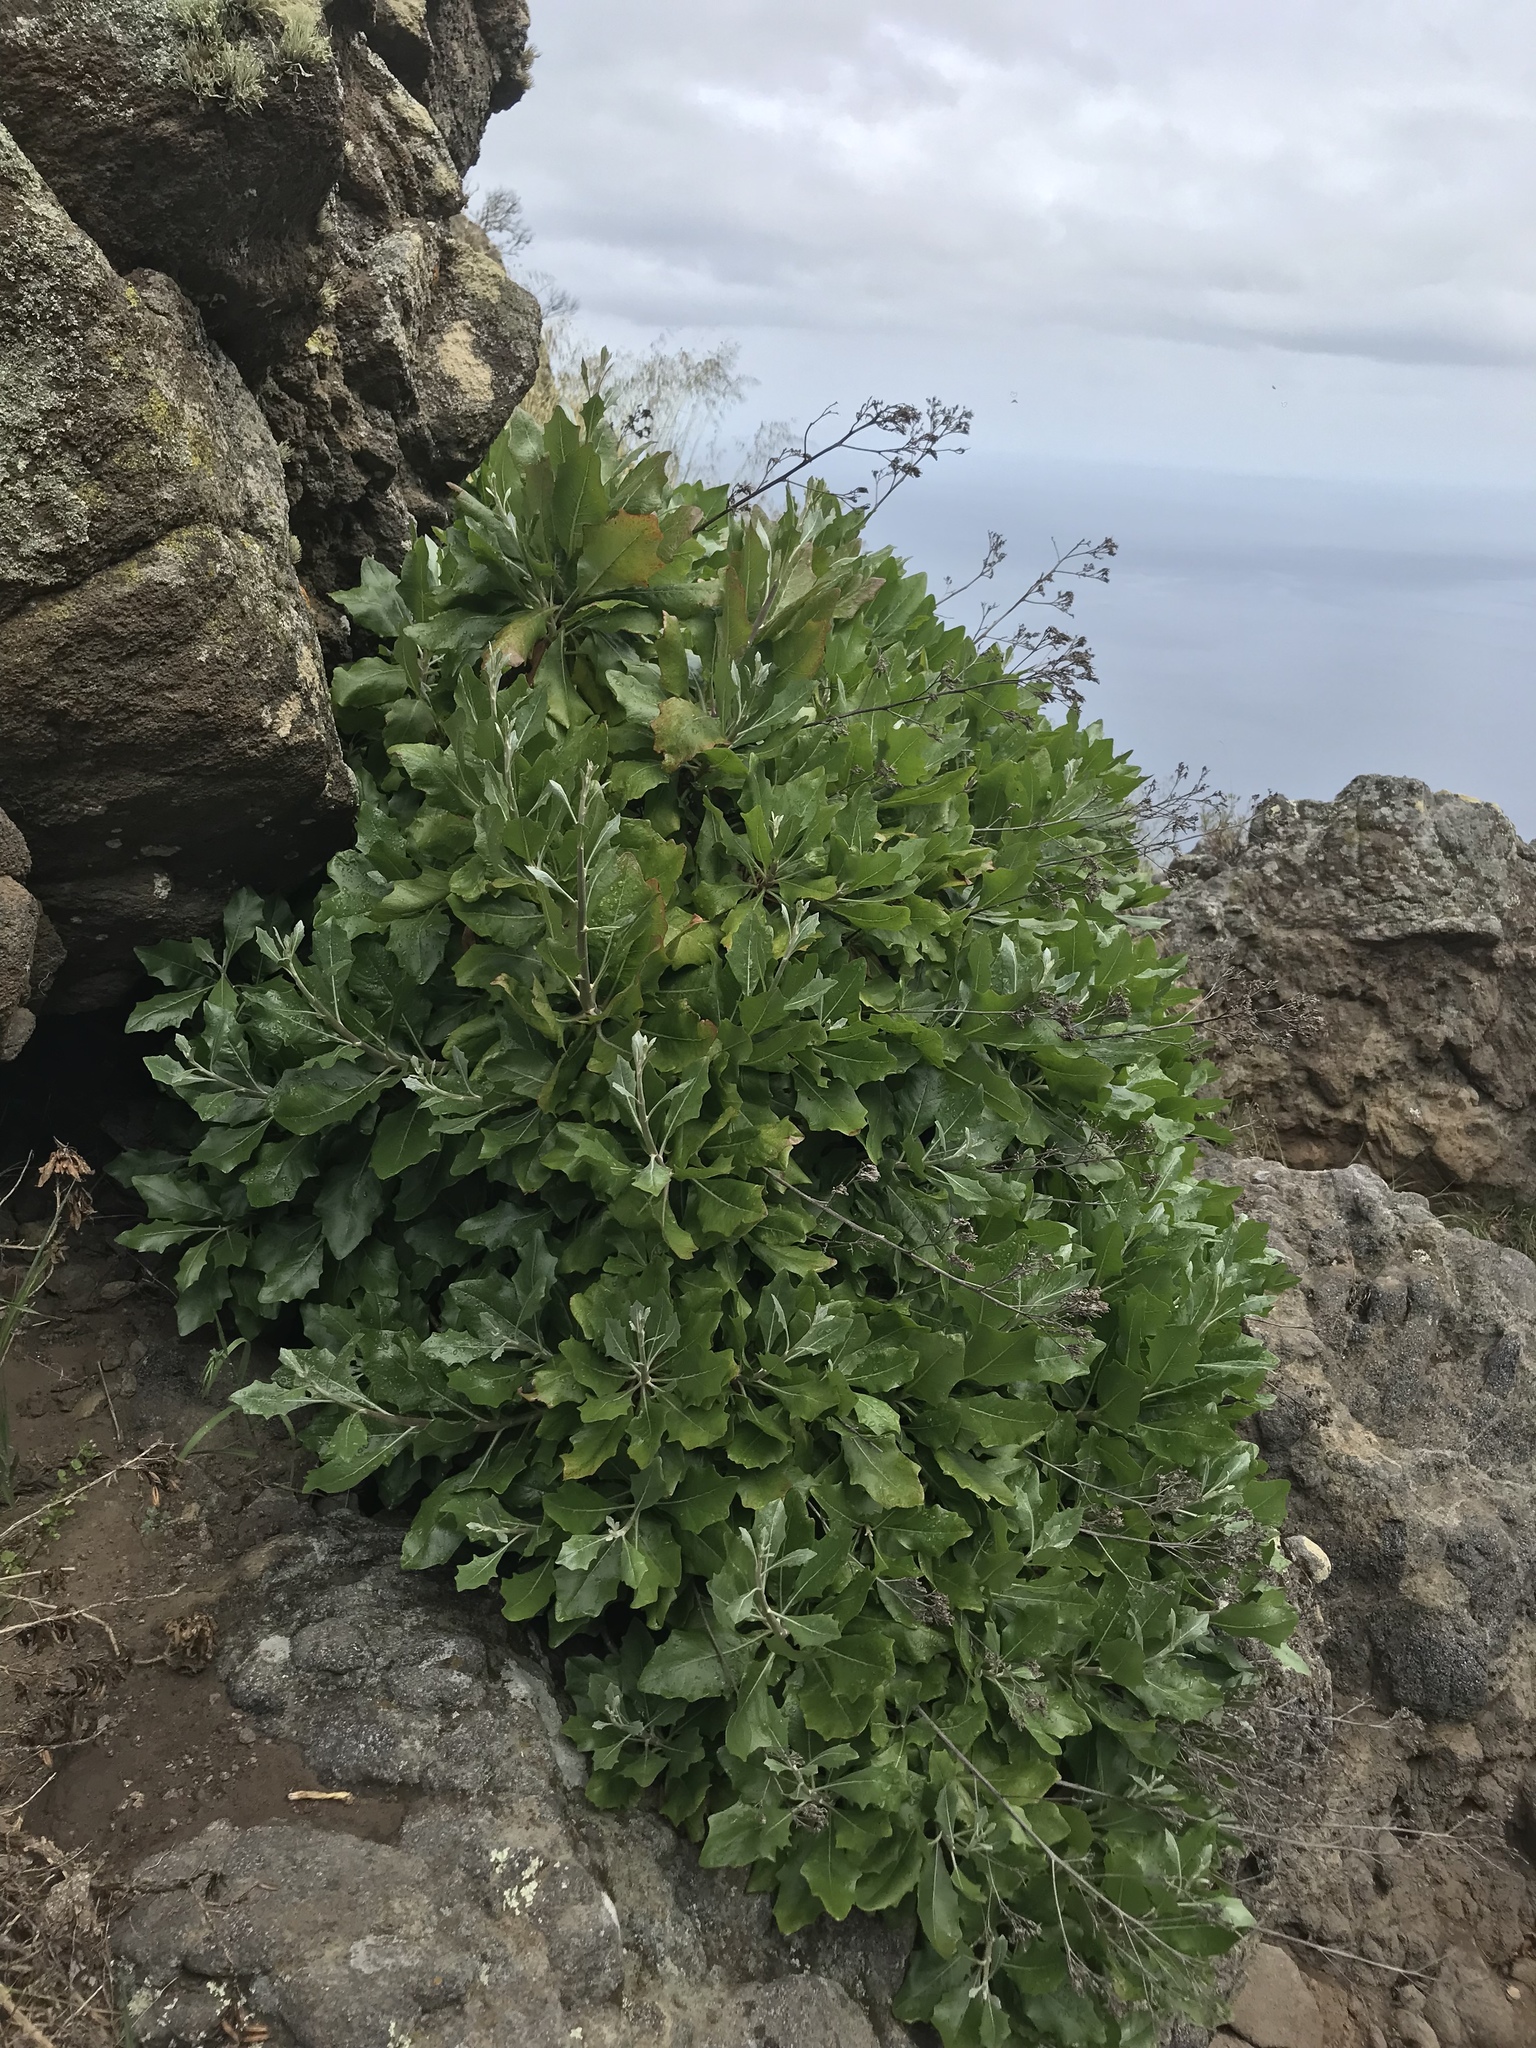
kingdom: Plantae
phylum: Tracheophyta
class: Magnoliopsida
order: Asterales
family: Asteraceae
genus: Munzothamnus
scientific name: Munzothamnus blairii
